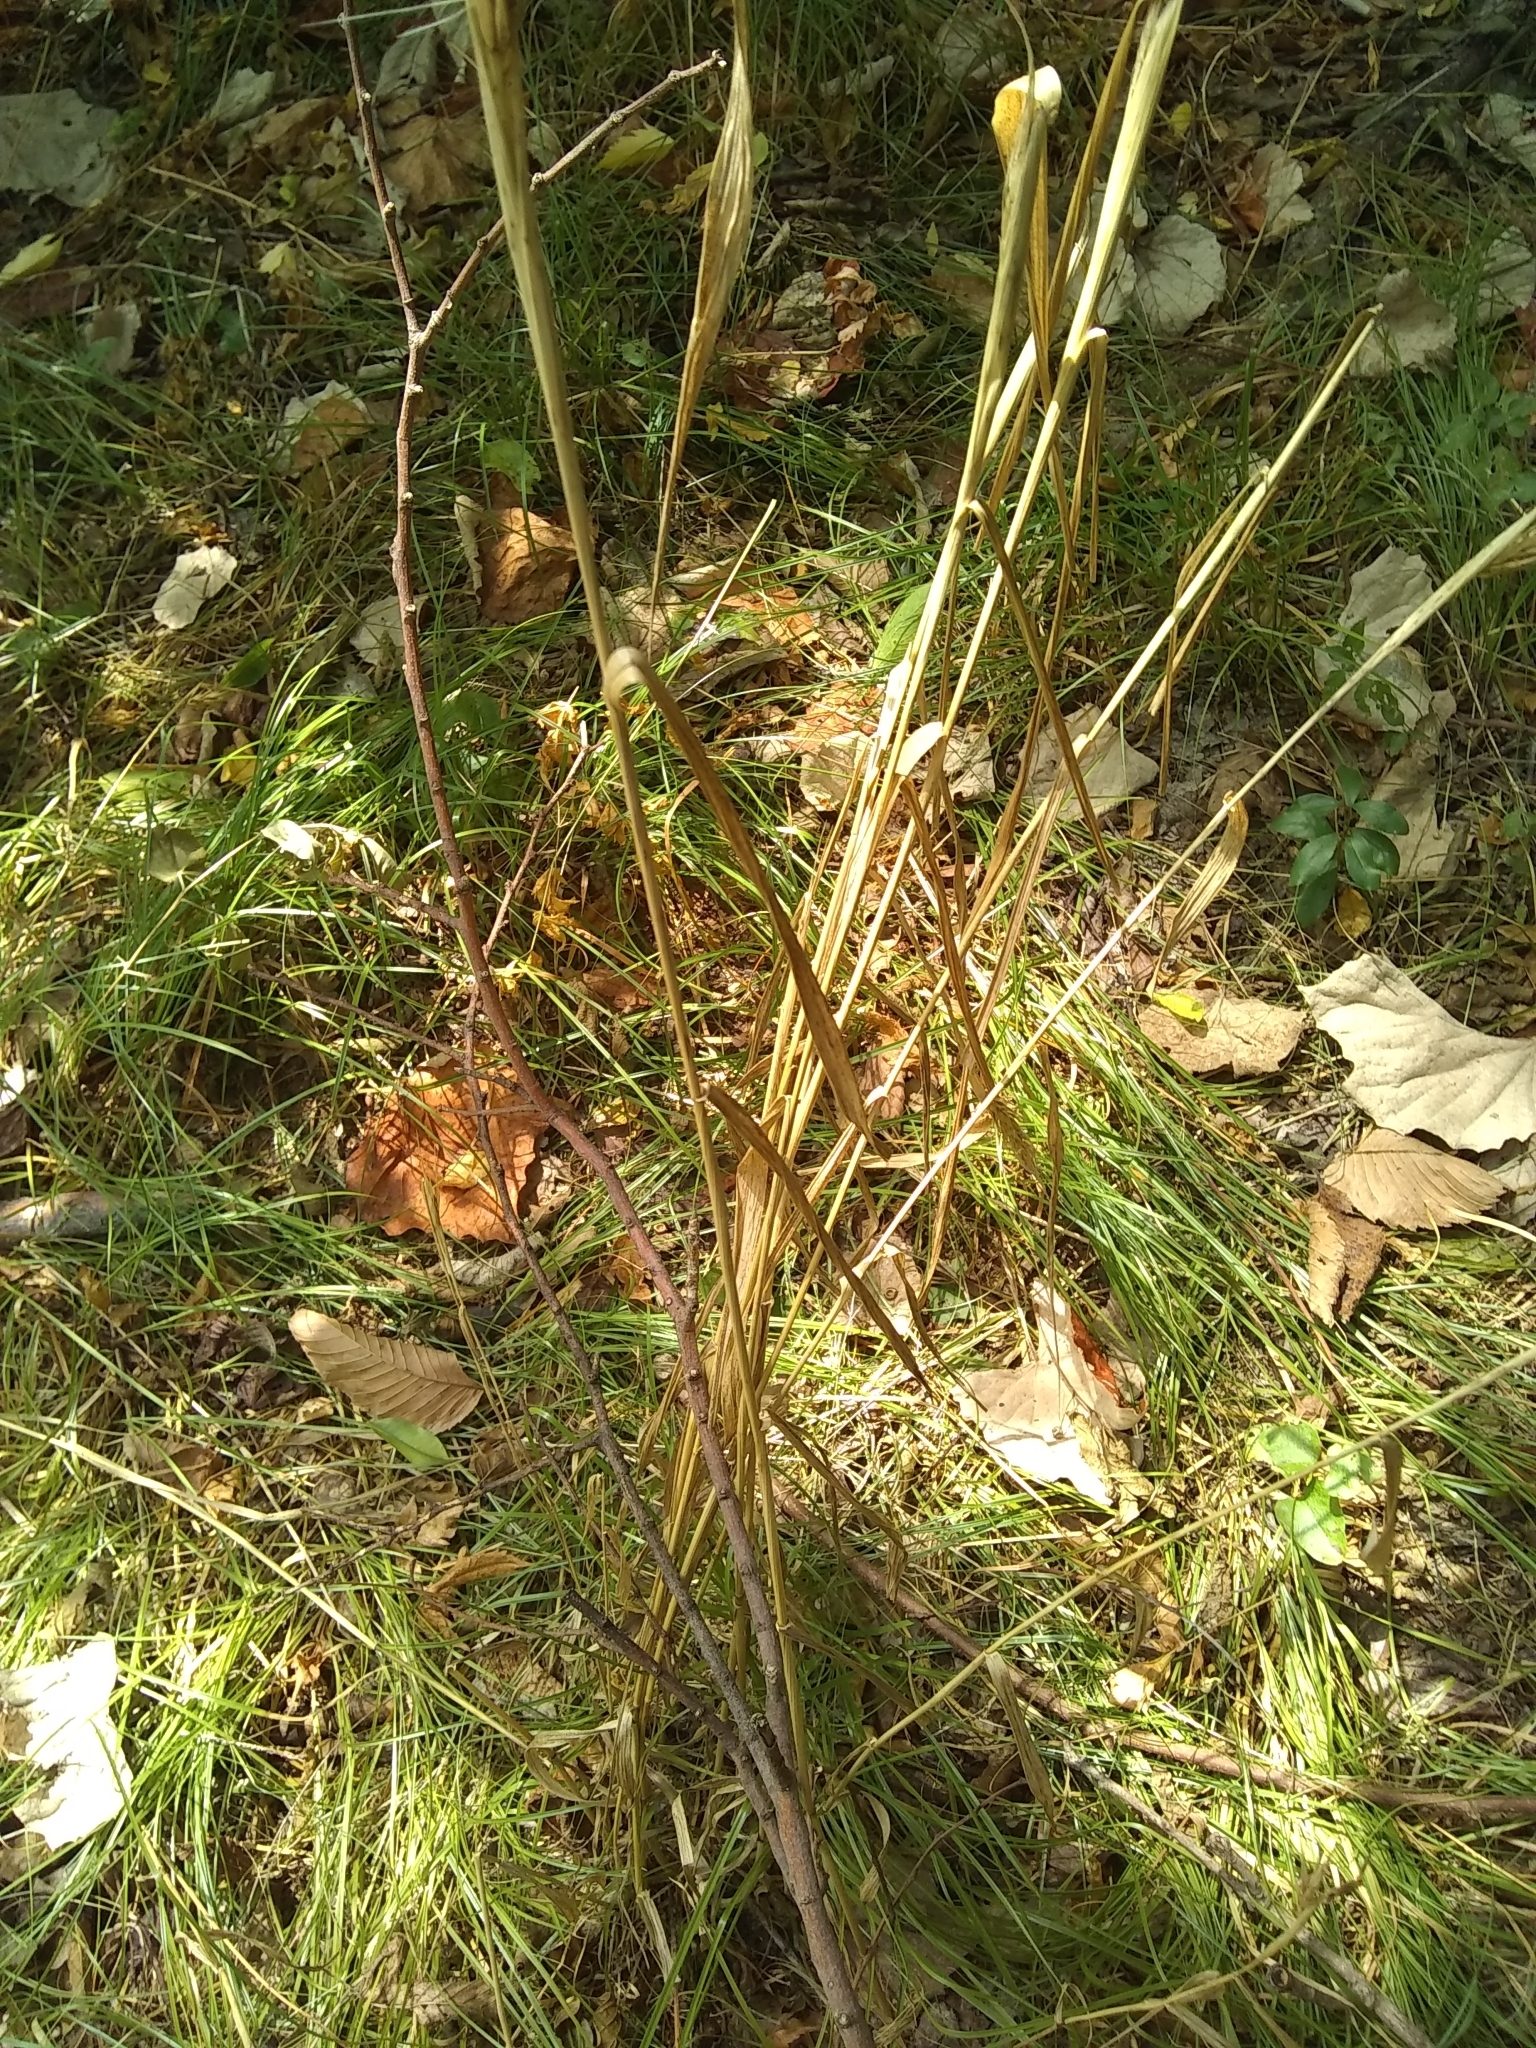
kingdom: Plantae
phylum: Tracheophyta
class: Liliopsida
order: Poales
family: Poaceae
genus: Elymus
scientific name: Elymus virginicus
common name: Common eastern wildrye
